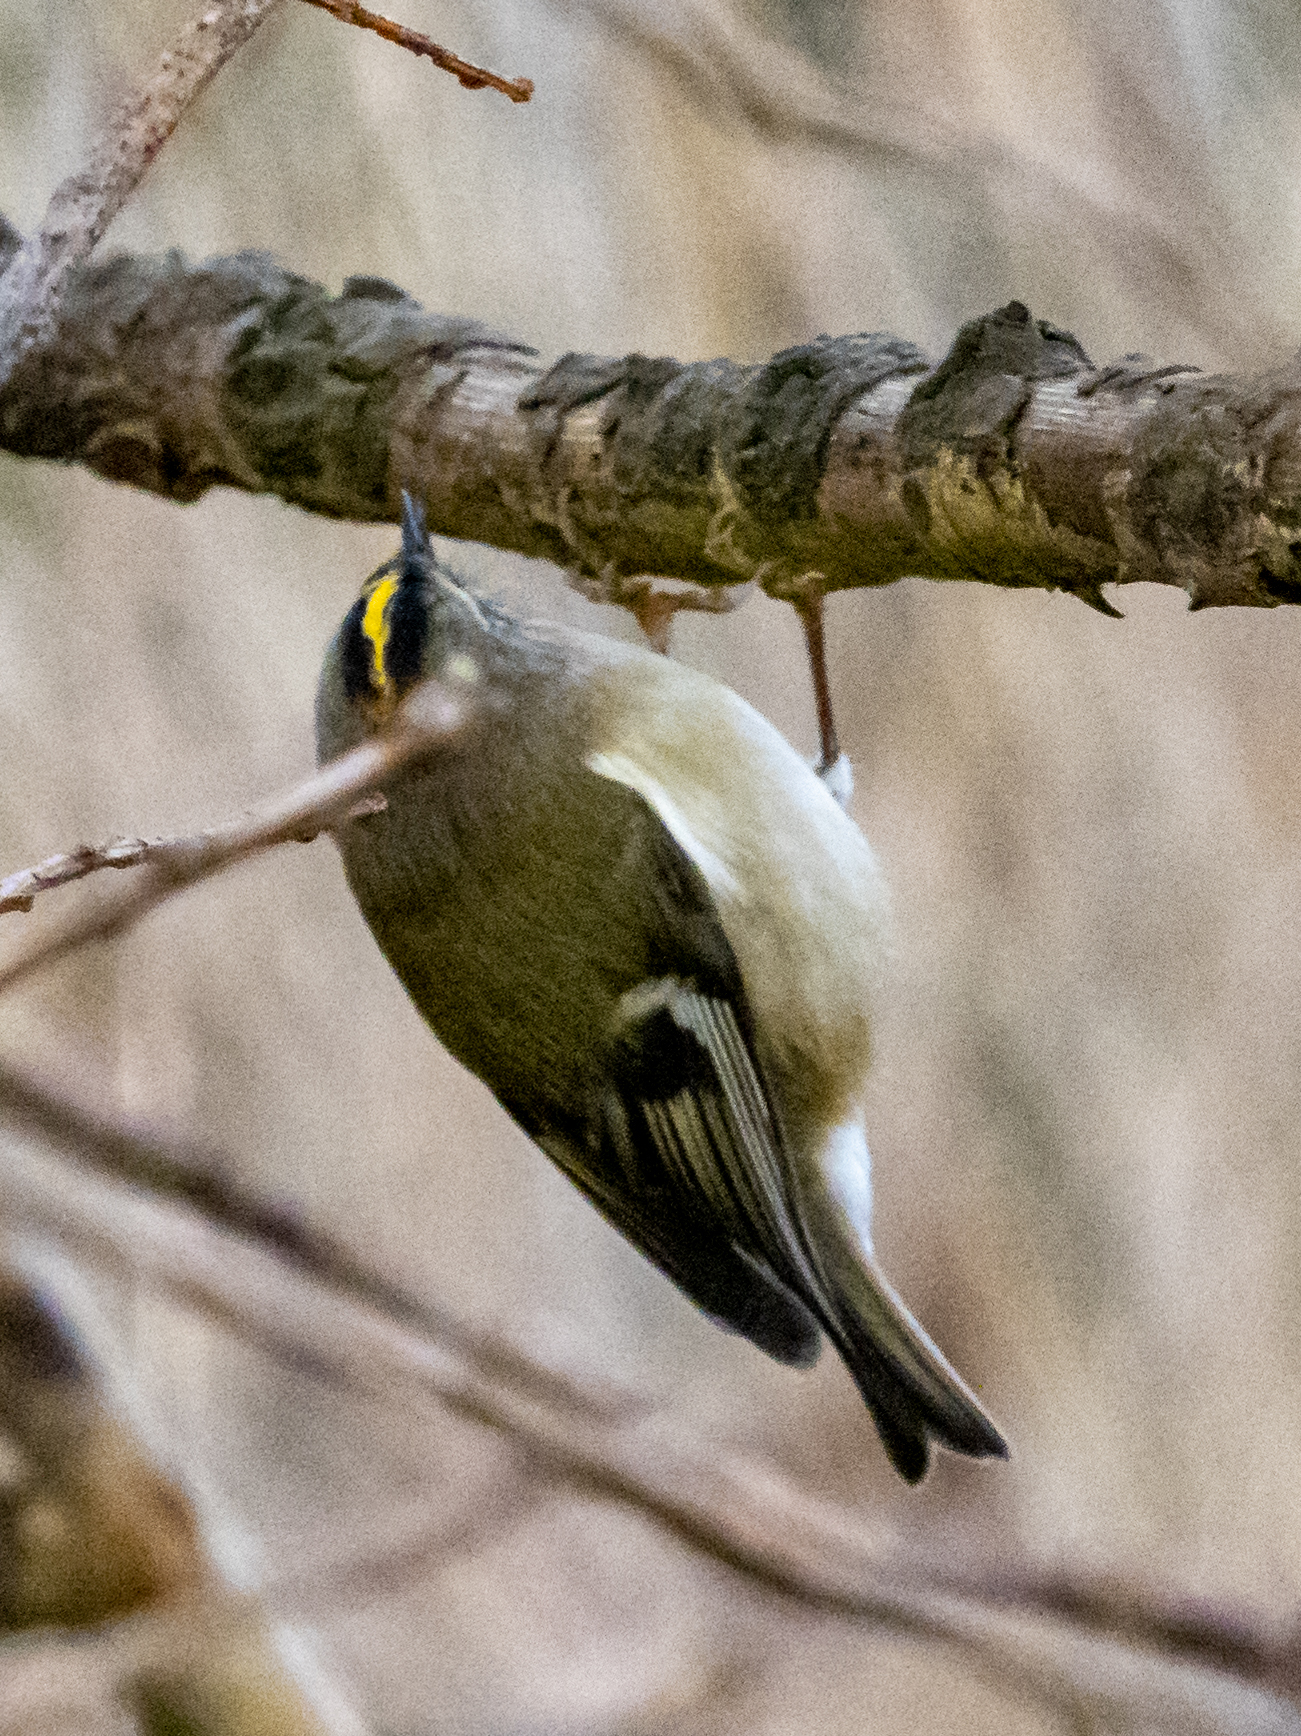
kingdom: Animalia
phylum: Chordata
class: Aves
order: Passeriformes
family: Regulidae
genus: Regulus
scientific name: Regulus regulus
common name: Goldcrest
